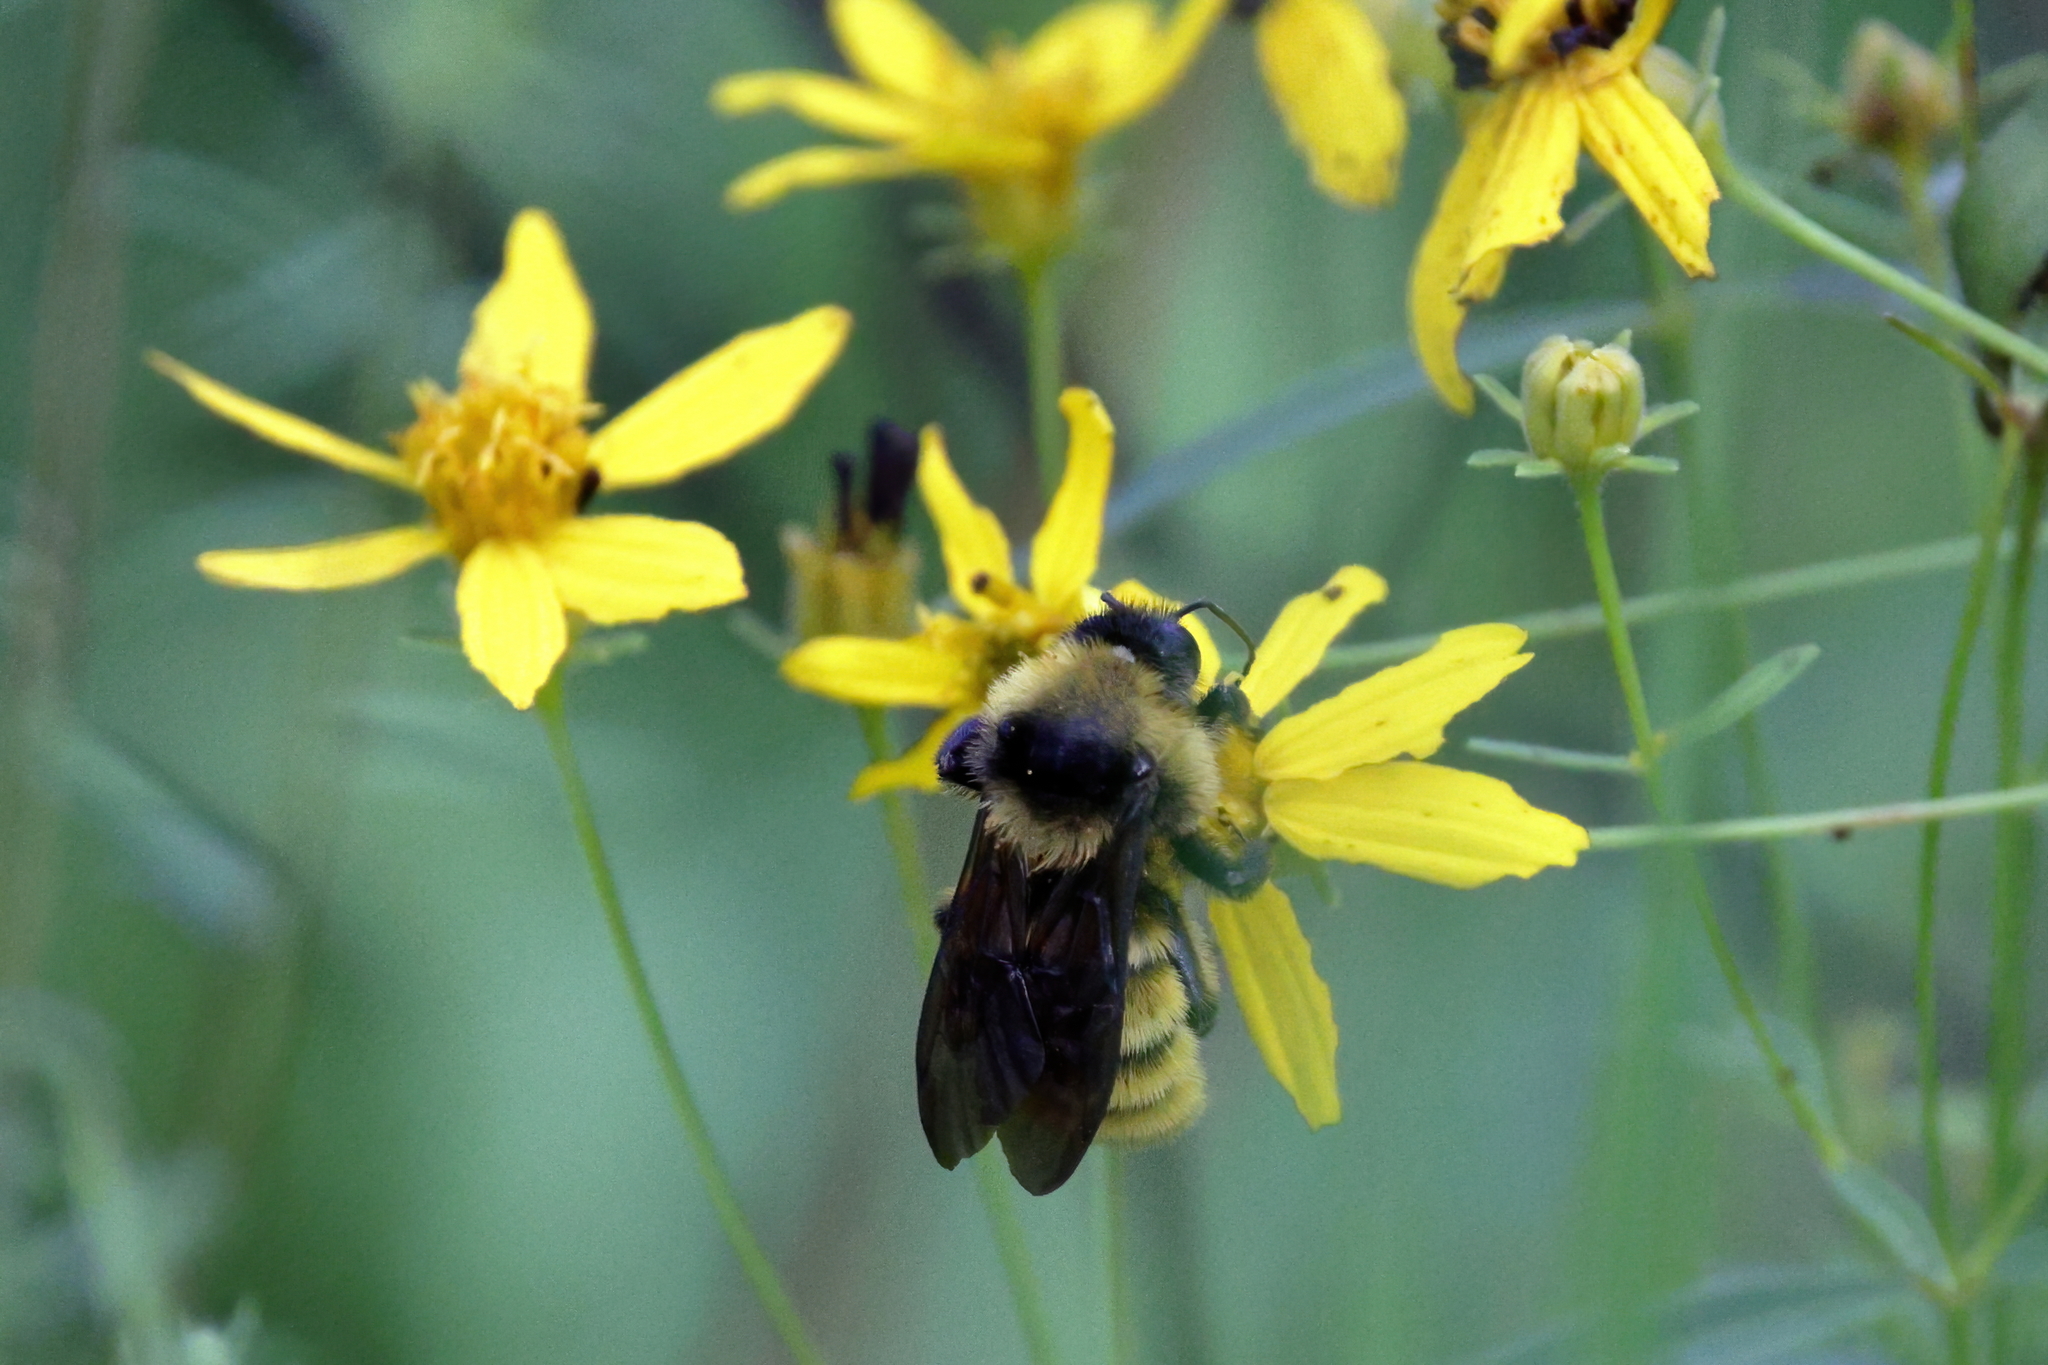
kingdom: Animalia
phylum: Arthropoda
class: Insecta
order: Hymenoptera
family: Apidae
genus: Bombus
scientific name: Bombus pensylvanicus
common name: Bumble bee
